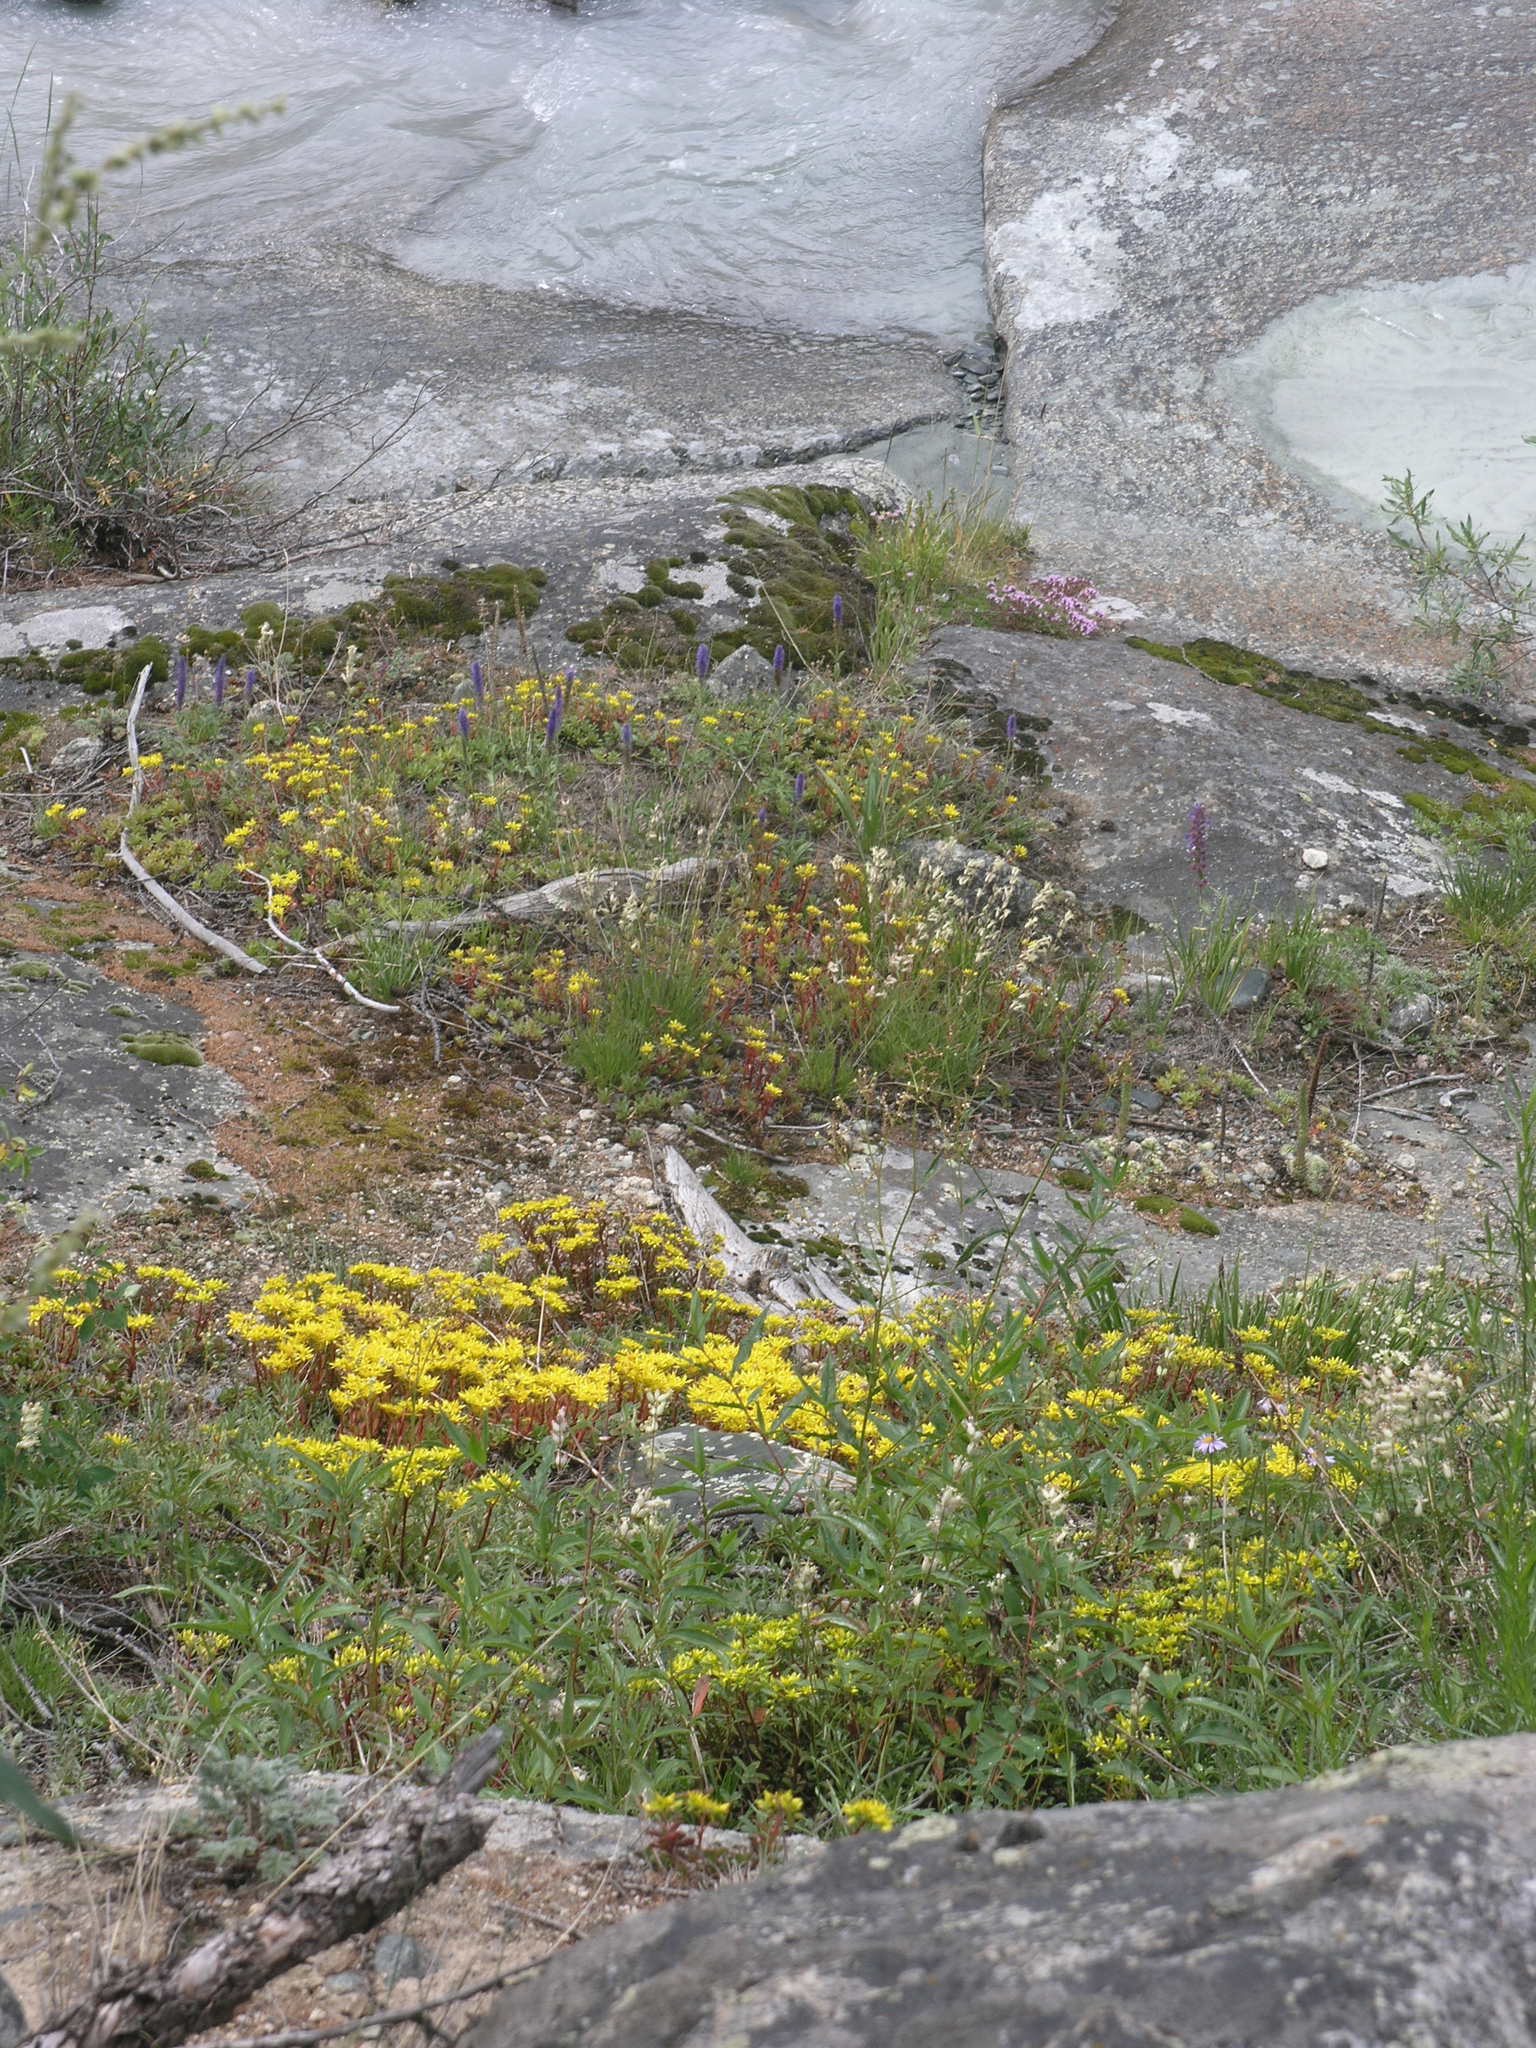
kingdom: Plantae
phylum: Tracheophyta
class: Magnoliopsida
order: Saxifragales
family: Crassulaceae
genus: Phedimus
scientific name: Phedimus hybridus
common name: Hybrid stonecrop
